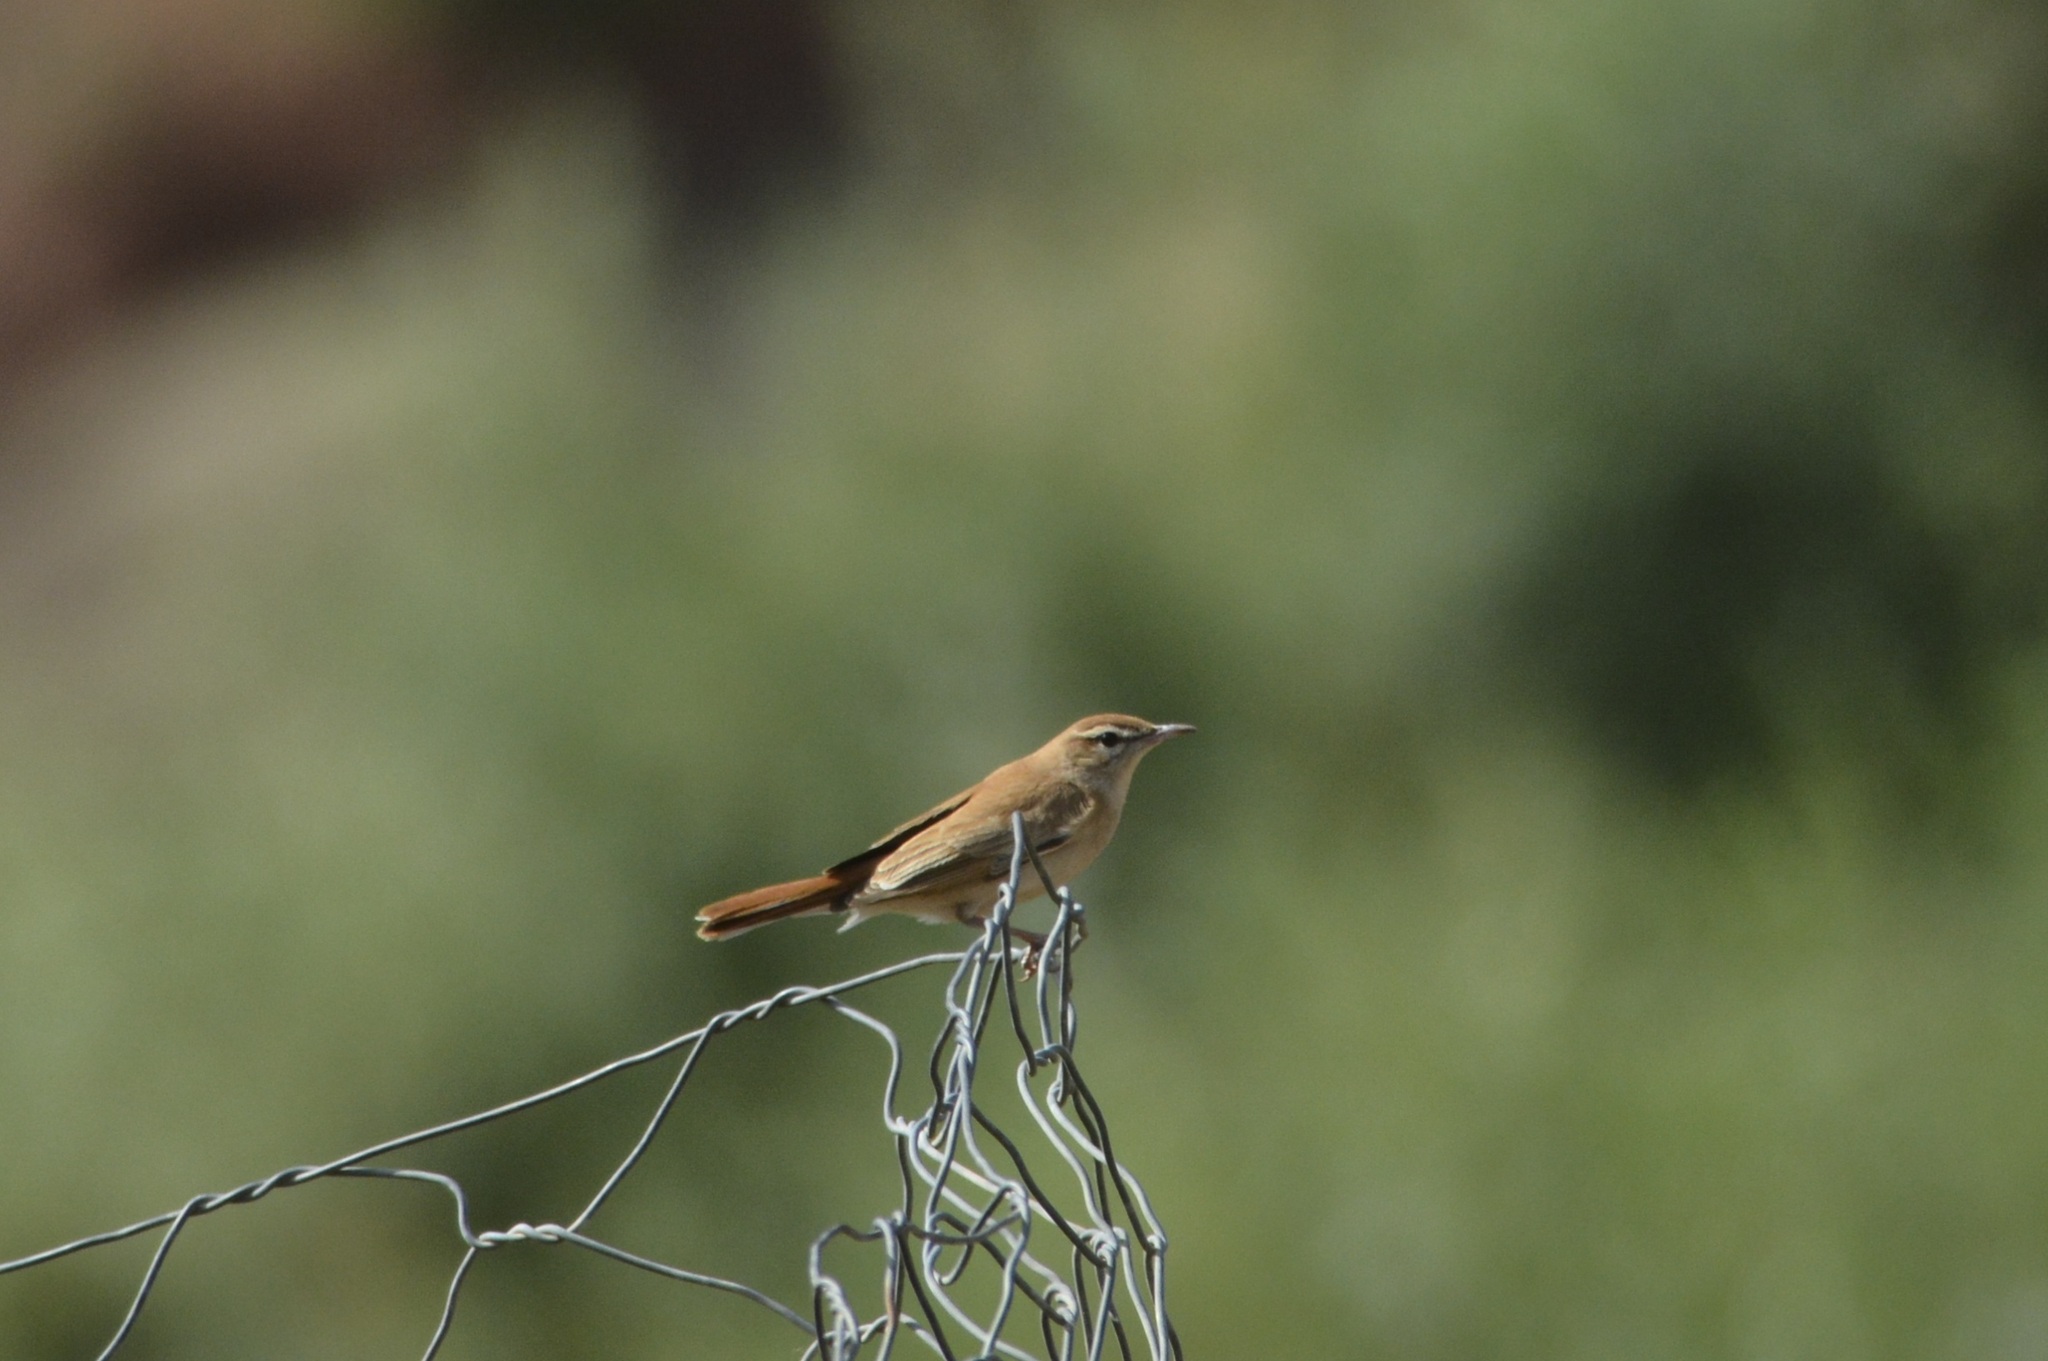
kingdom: Animalia
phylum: Chordata
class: Aves
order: Passeriformes
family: Muscicapidae
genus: Erythropygia
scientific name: Erythropygia galactotes
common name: Rufous-tailed scrub robin
